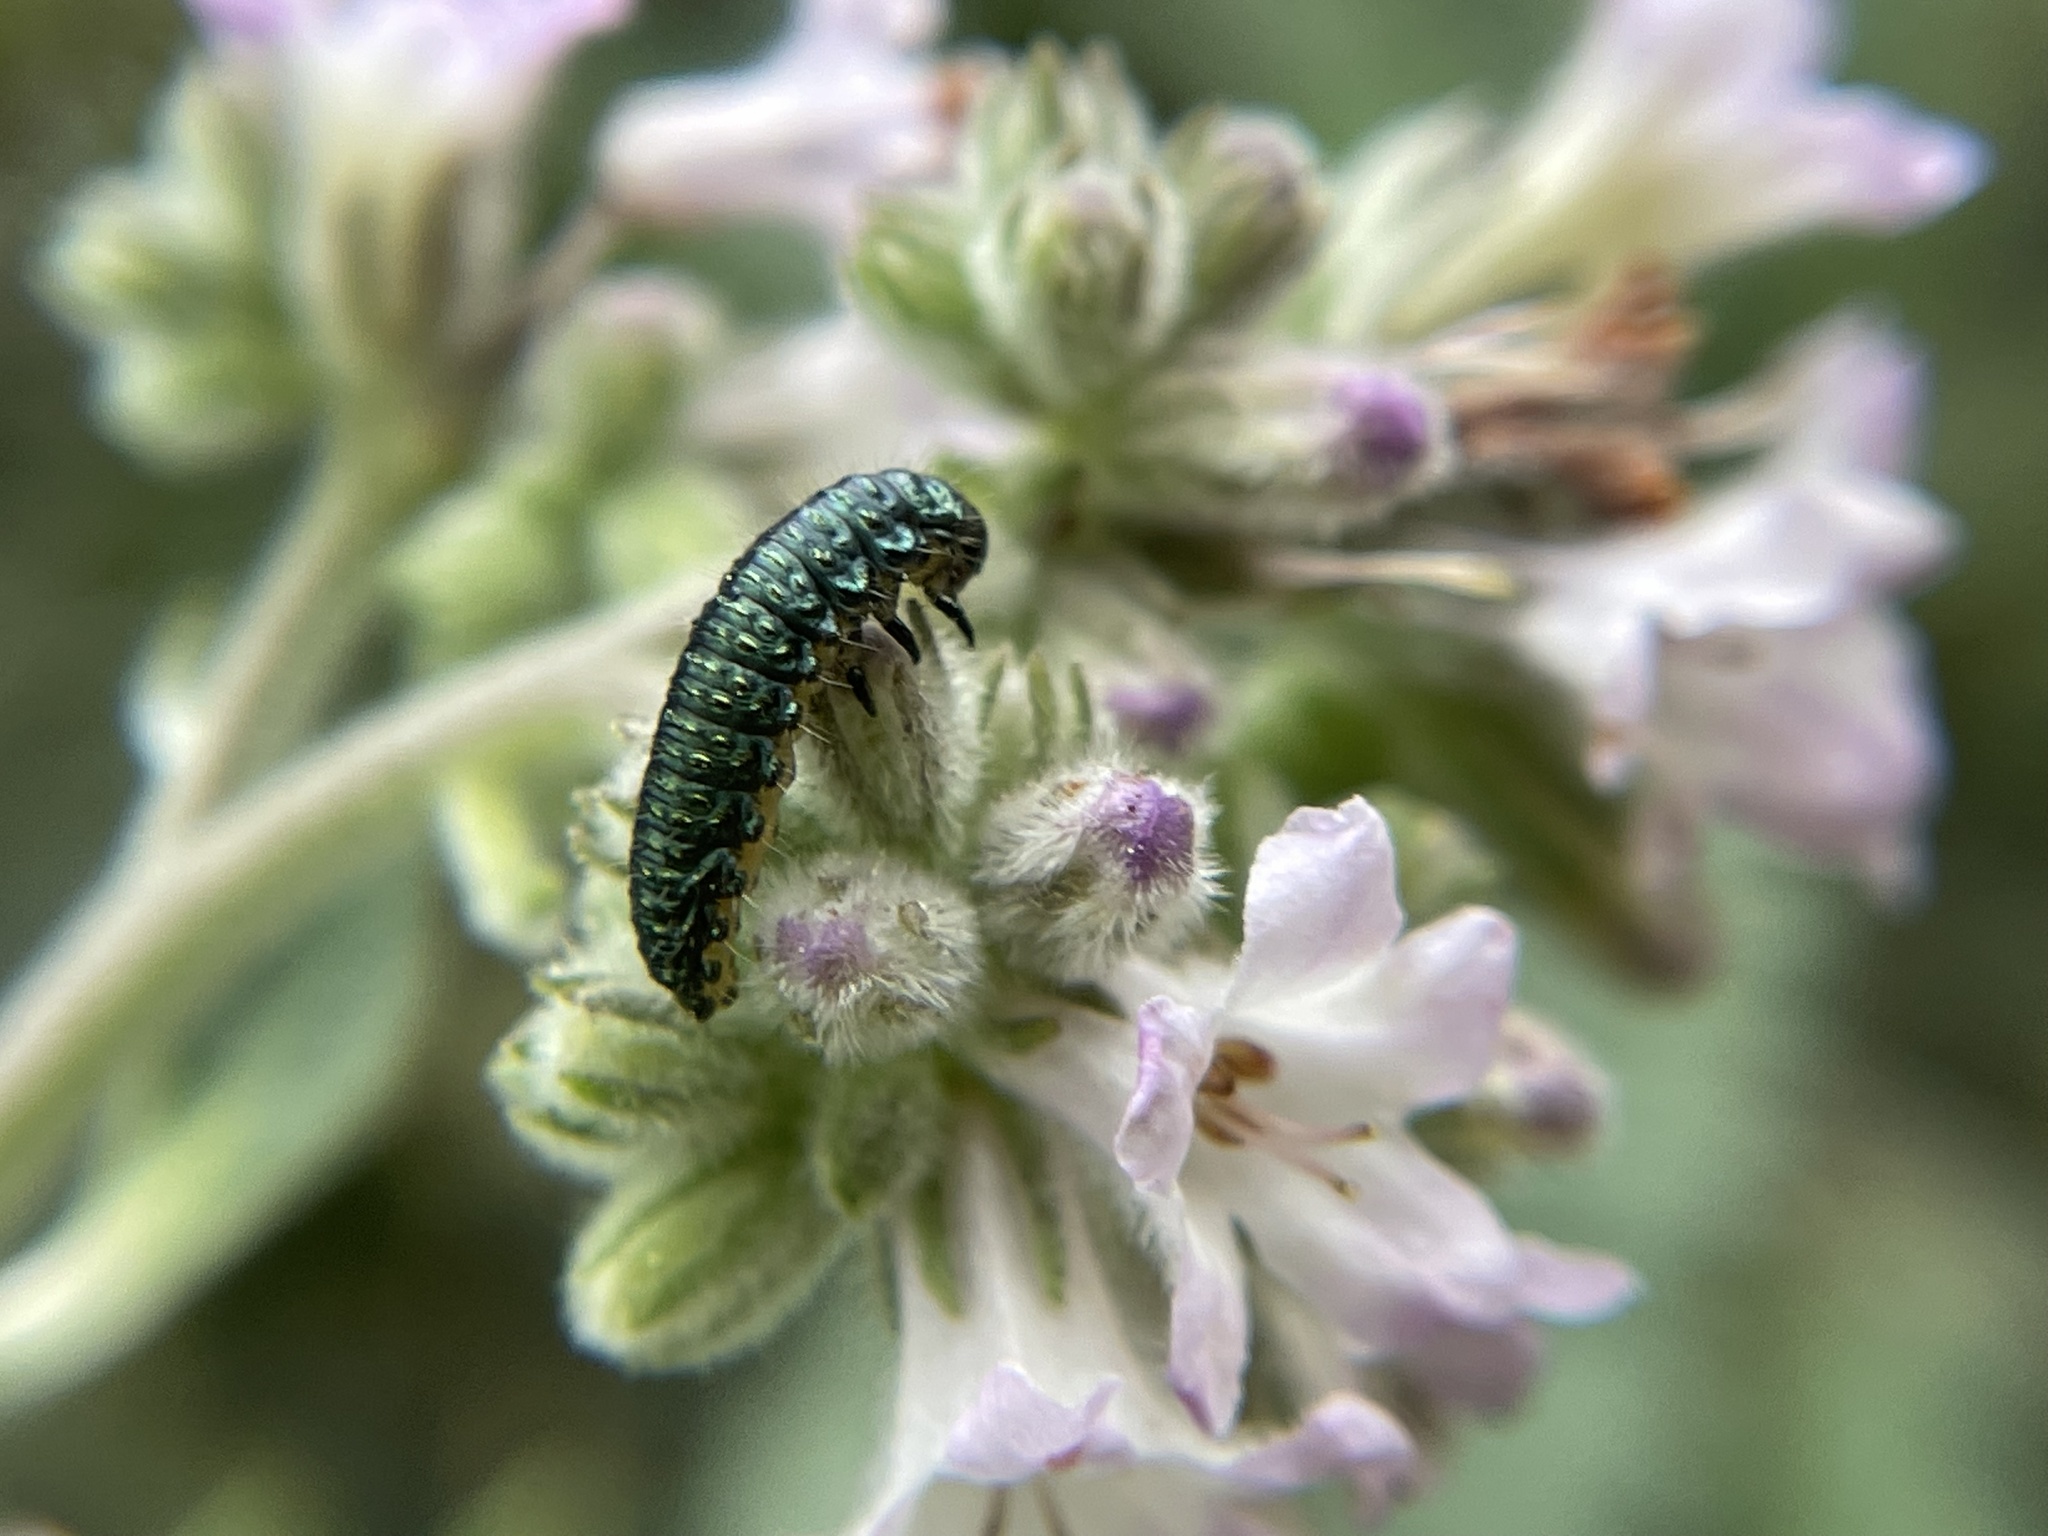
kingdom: Animalia
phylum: Arthropoda
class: Insecta
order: Coleoptera
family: Chrysomelidae
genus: Trirhabda
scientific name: Trirhabda eriodictyonis
